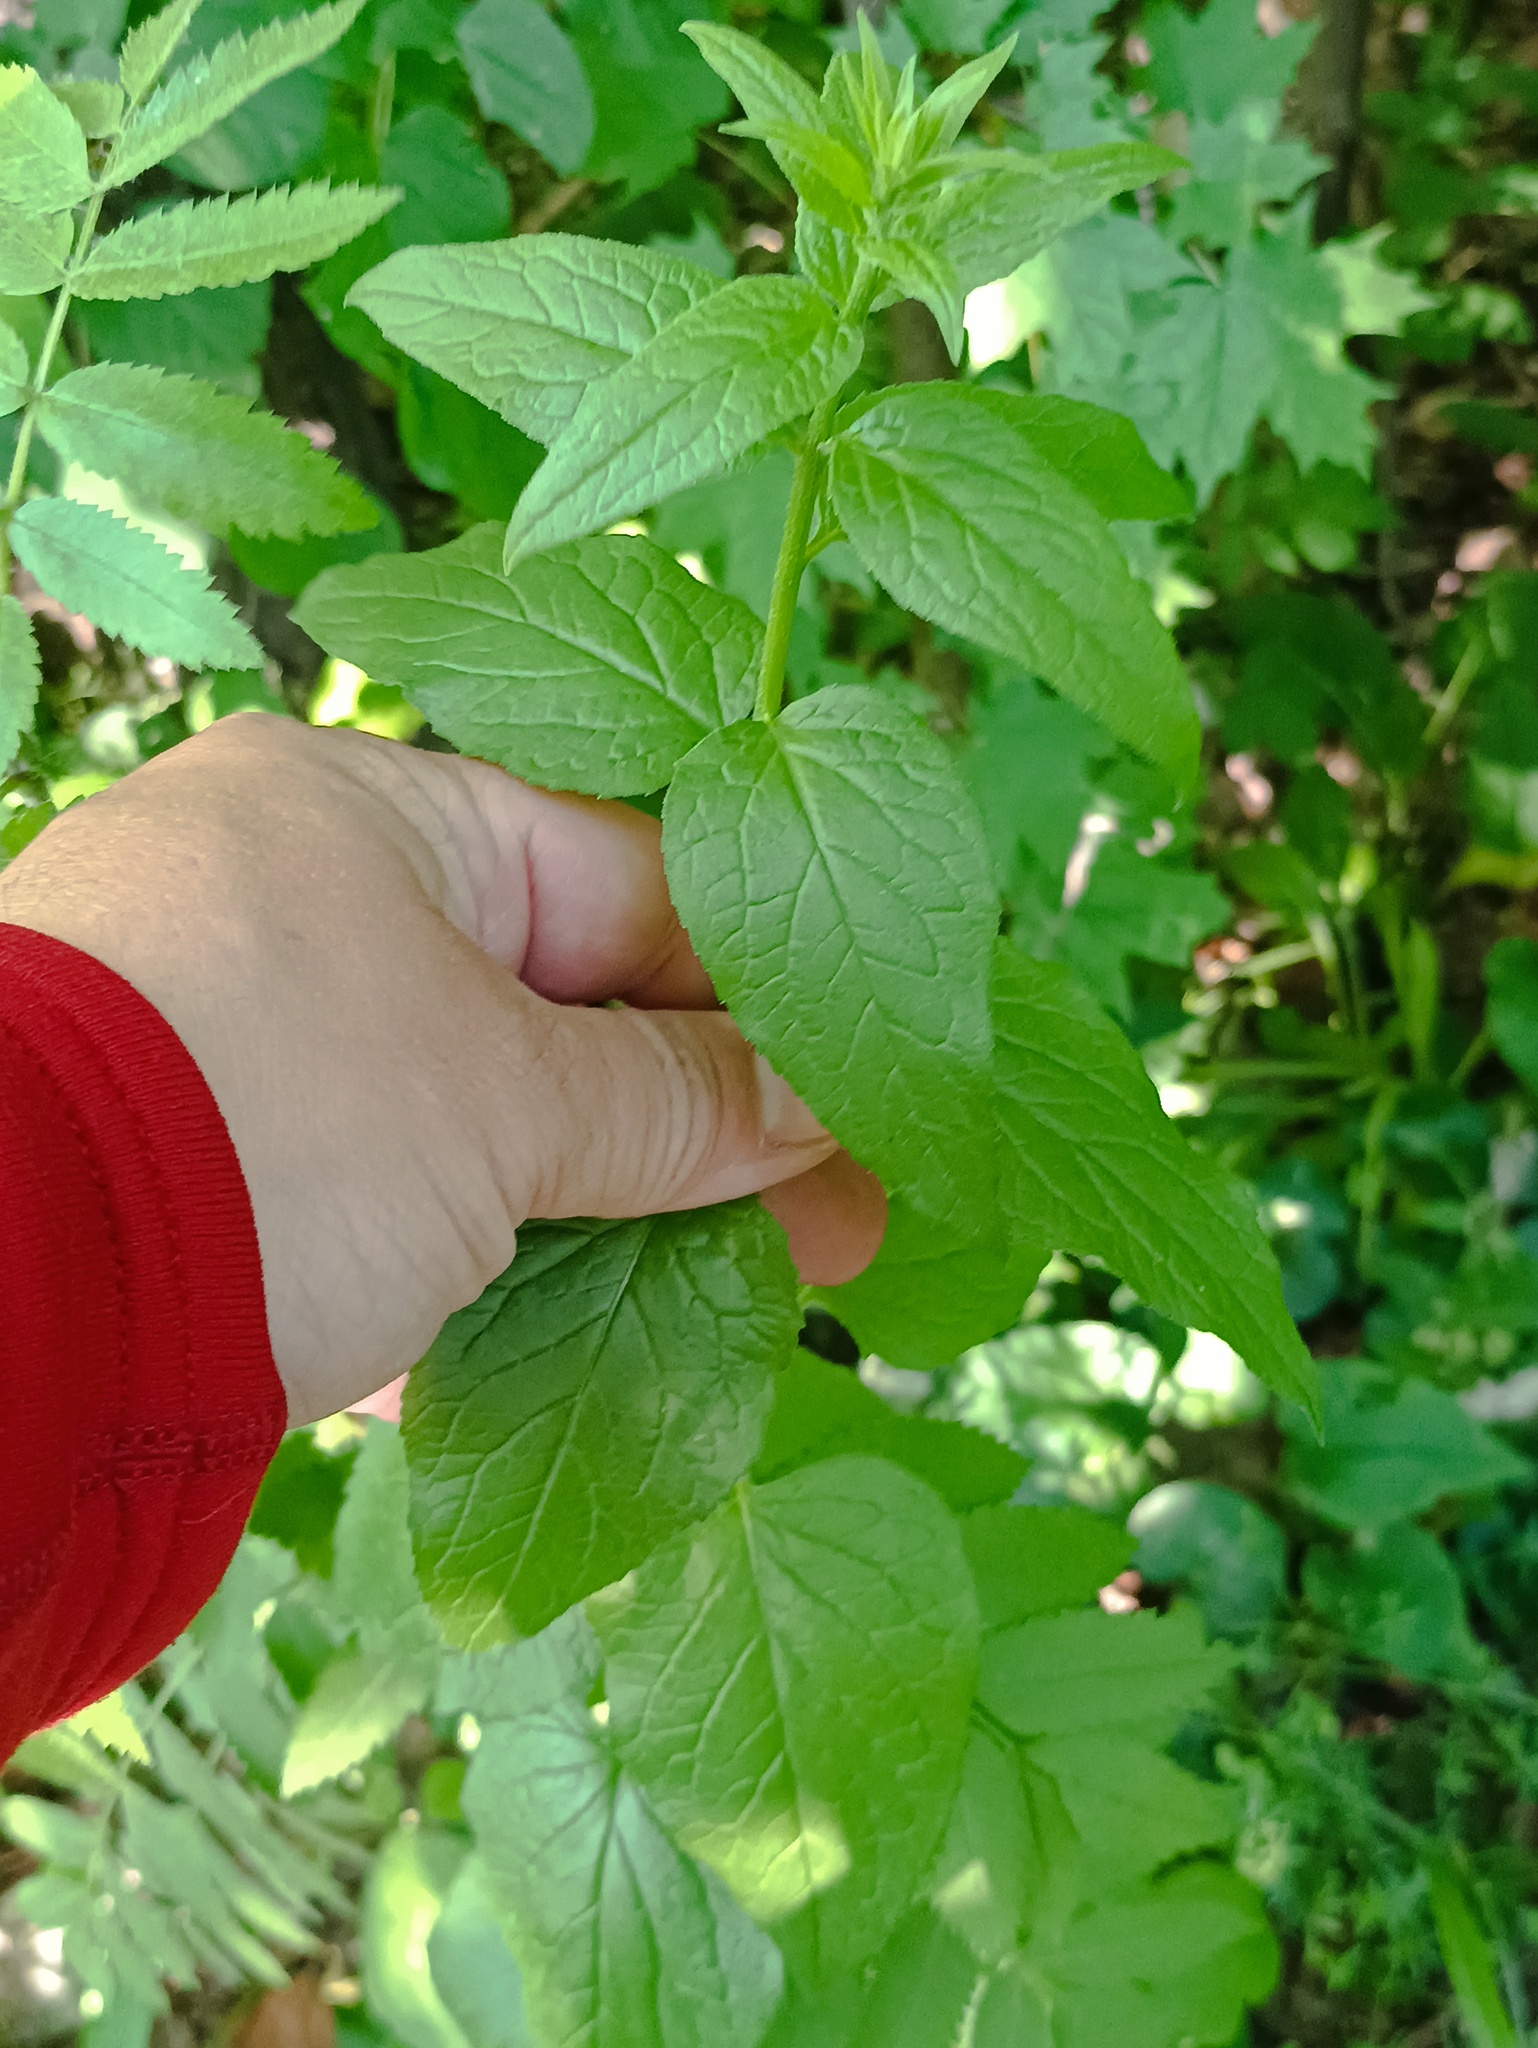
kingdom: Plantae
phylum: Tracheophyta
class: Magnoliopsida
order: Asterales
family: Campanulaceae
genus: Campanula
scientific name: Campanula rapunculoides
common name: Creeping bellflower
